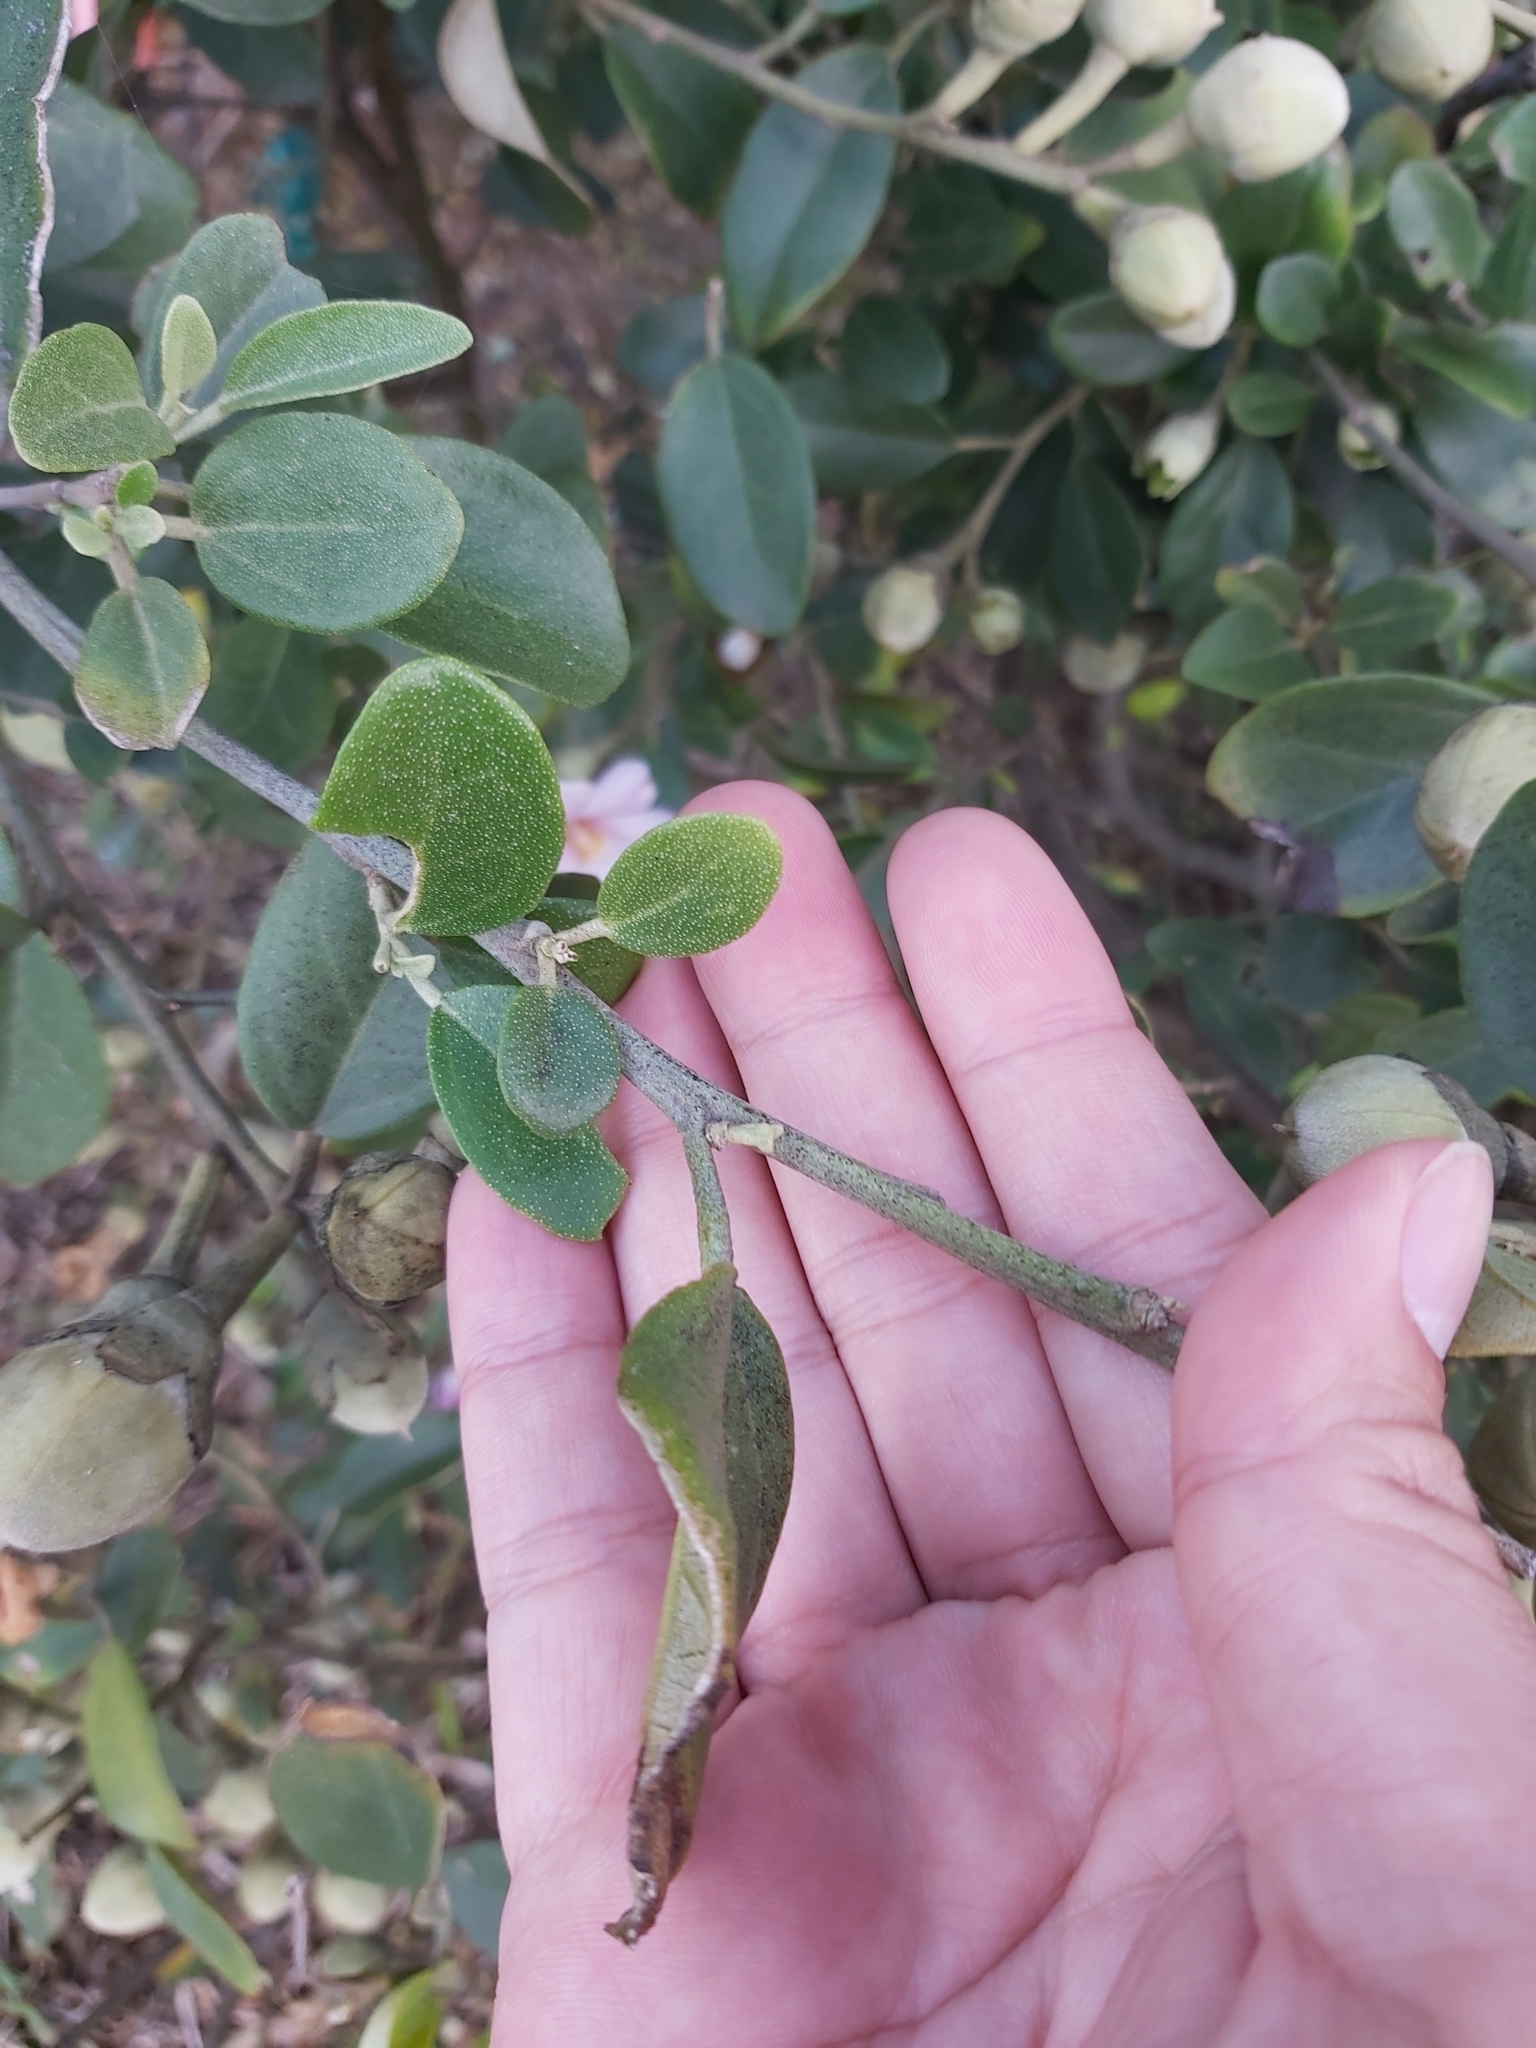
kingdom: Plantae
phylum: Tracheophyta
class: Magnoliopsida
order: Malvales
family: Malvaceae
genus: Lagunaria
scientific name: Lagunaria patersonia
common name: Cow itch tree
